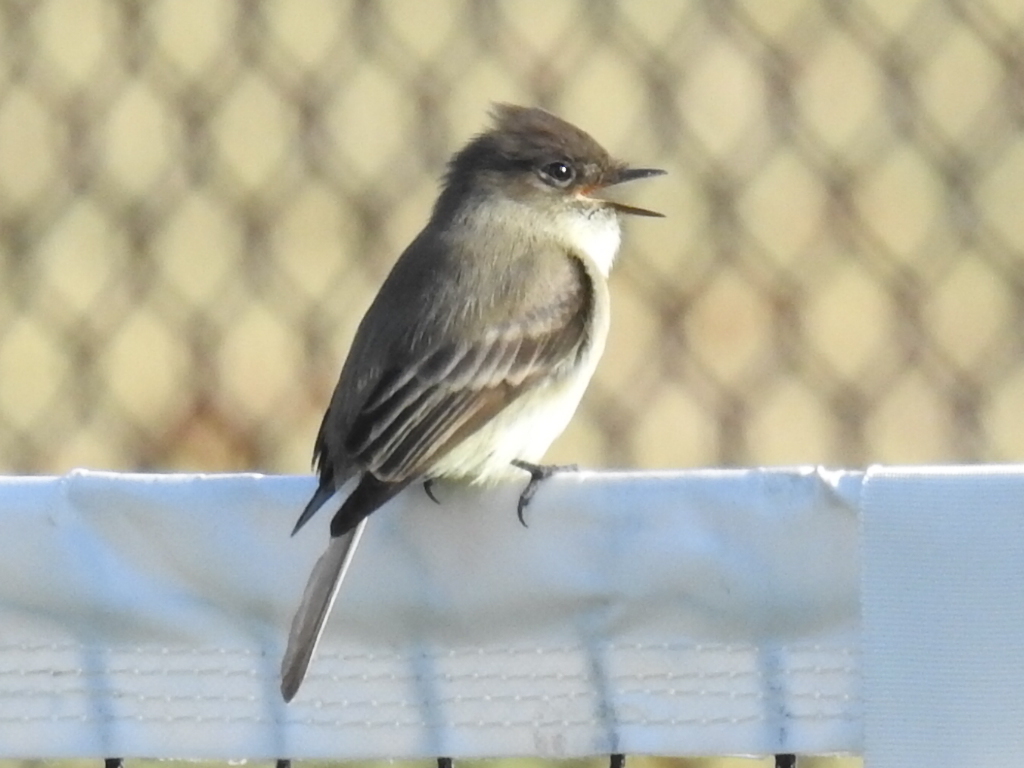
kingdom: Animalia
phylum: Chordata
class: Aves
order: Passeriformes
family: Tyrannidae
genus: Sayornis
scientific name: Sayornis phoebe
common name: Eastern phoebe
